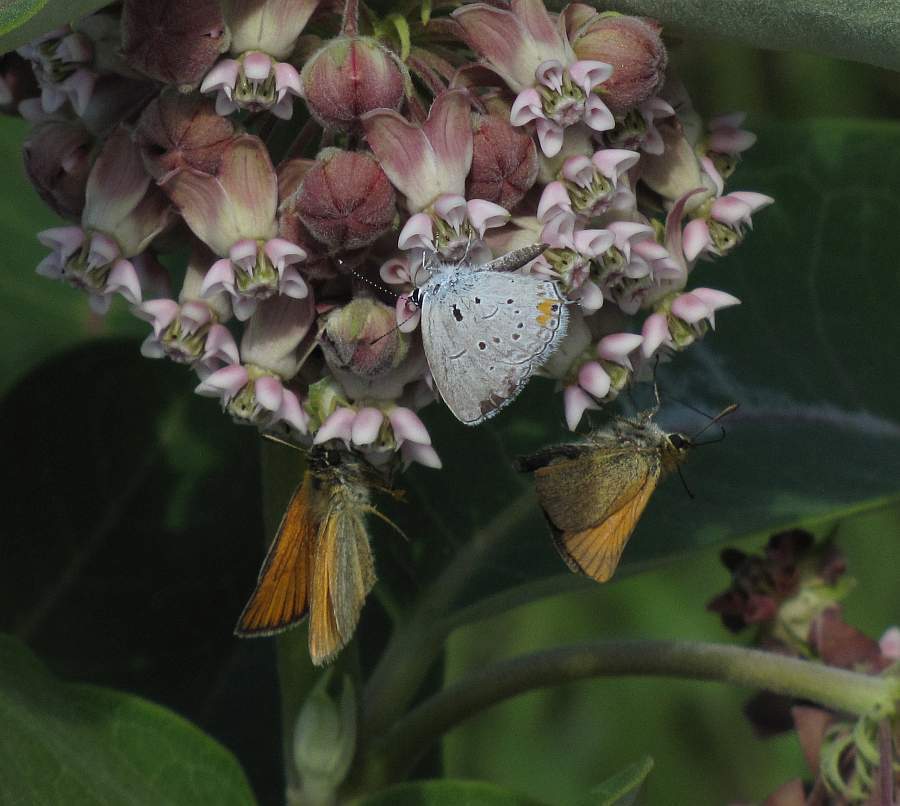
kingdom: Animalia
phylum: Arthropoda
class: Insecta
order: Lepidoptera
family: Lycaenidae
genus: Elkalyce
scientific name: Elkalyce comyntas
